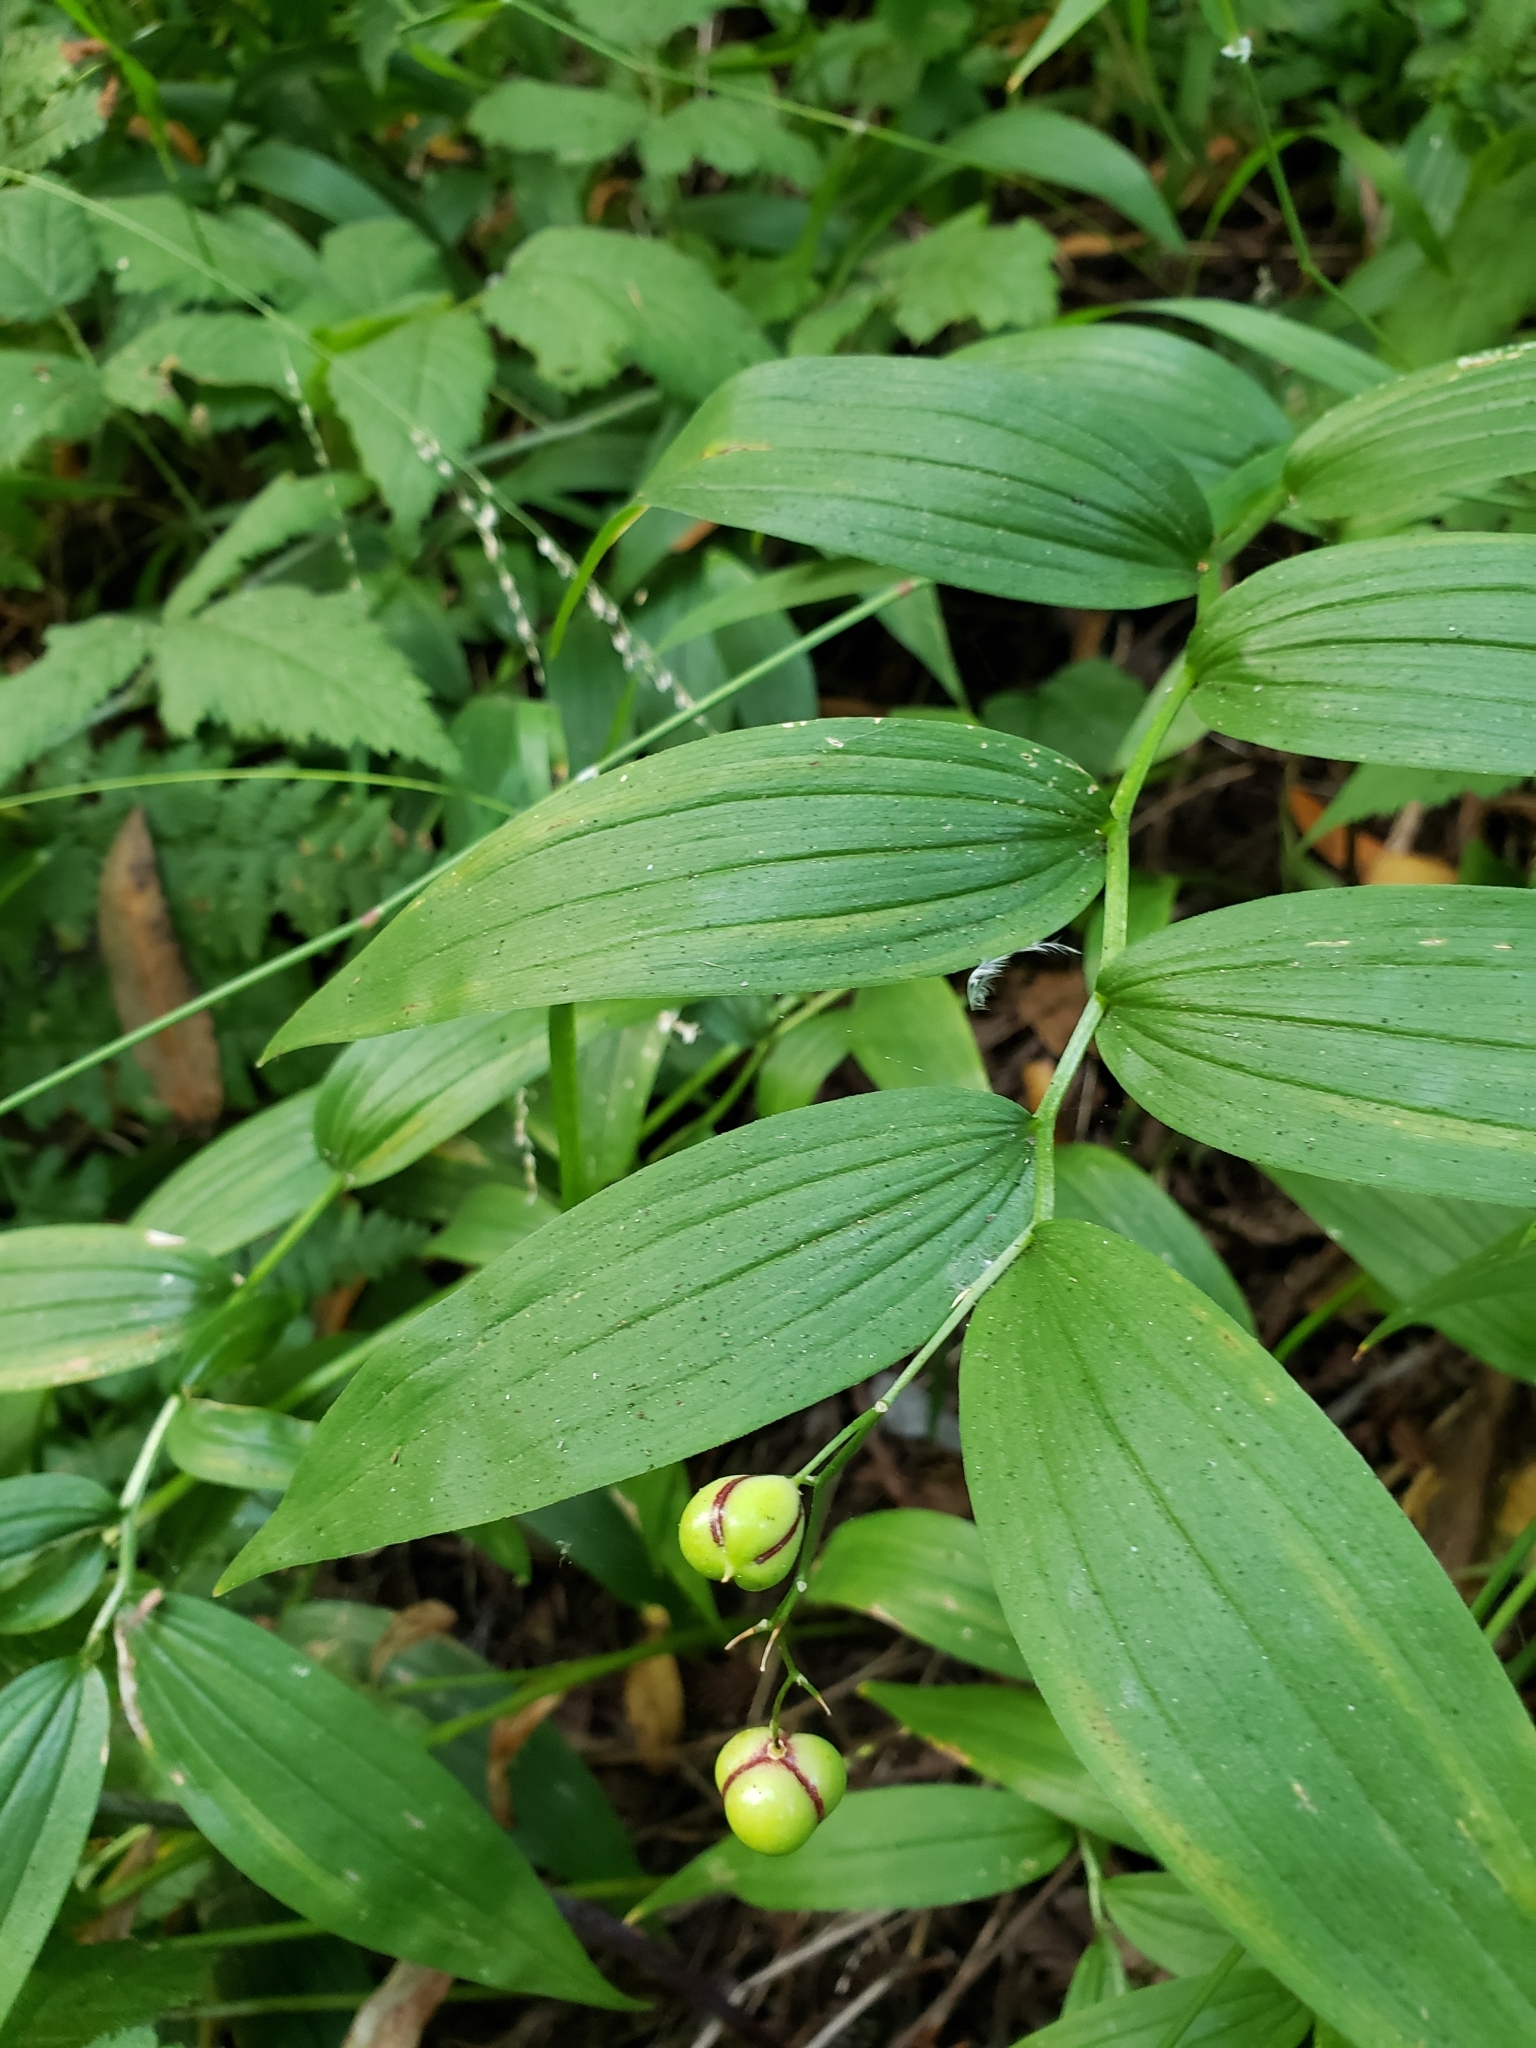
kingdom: Plantae
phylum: Tracheophyta
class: Liliopsida
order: Asparagales
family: Asparagaceae
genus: Maianthemum
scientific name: Maianthemum stellatum
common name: Little false solomon's seal
